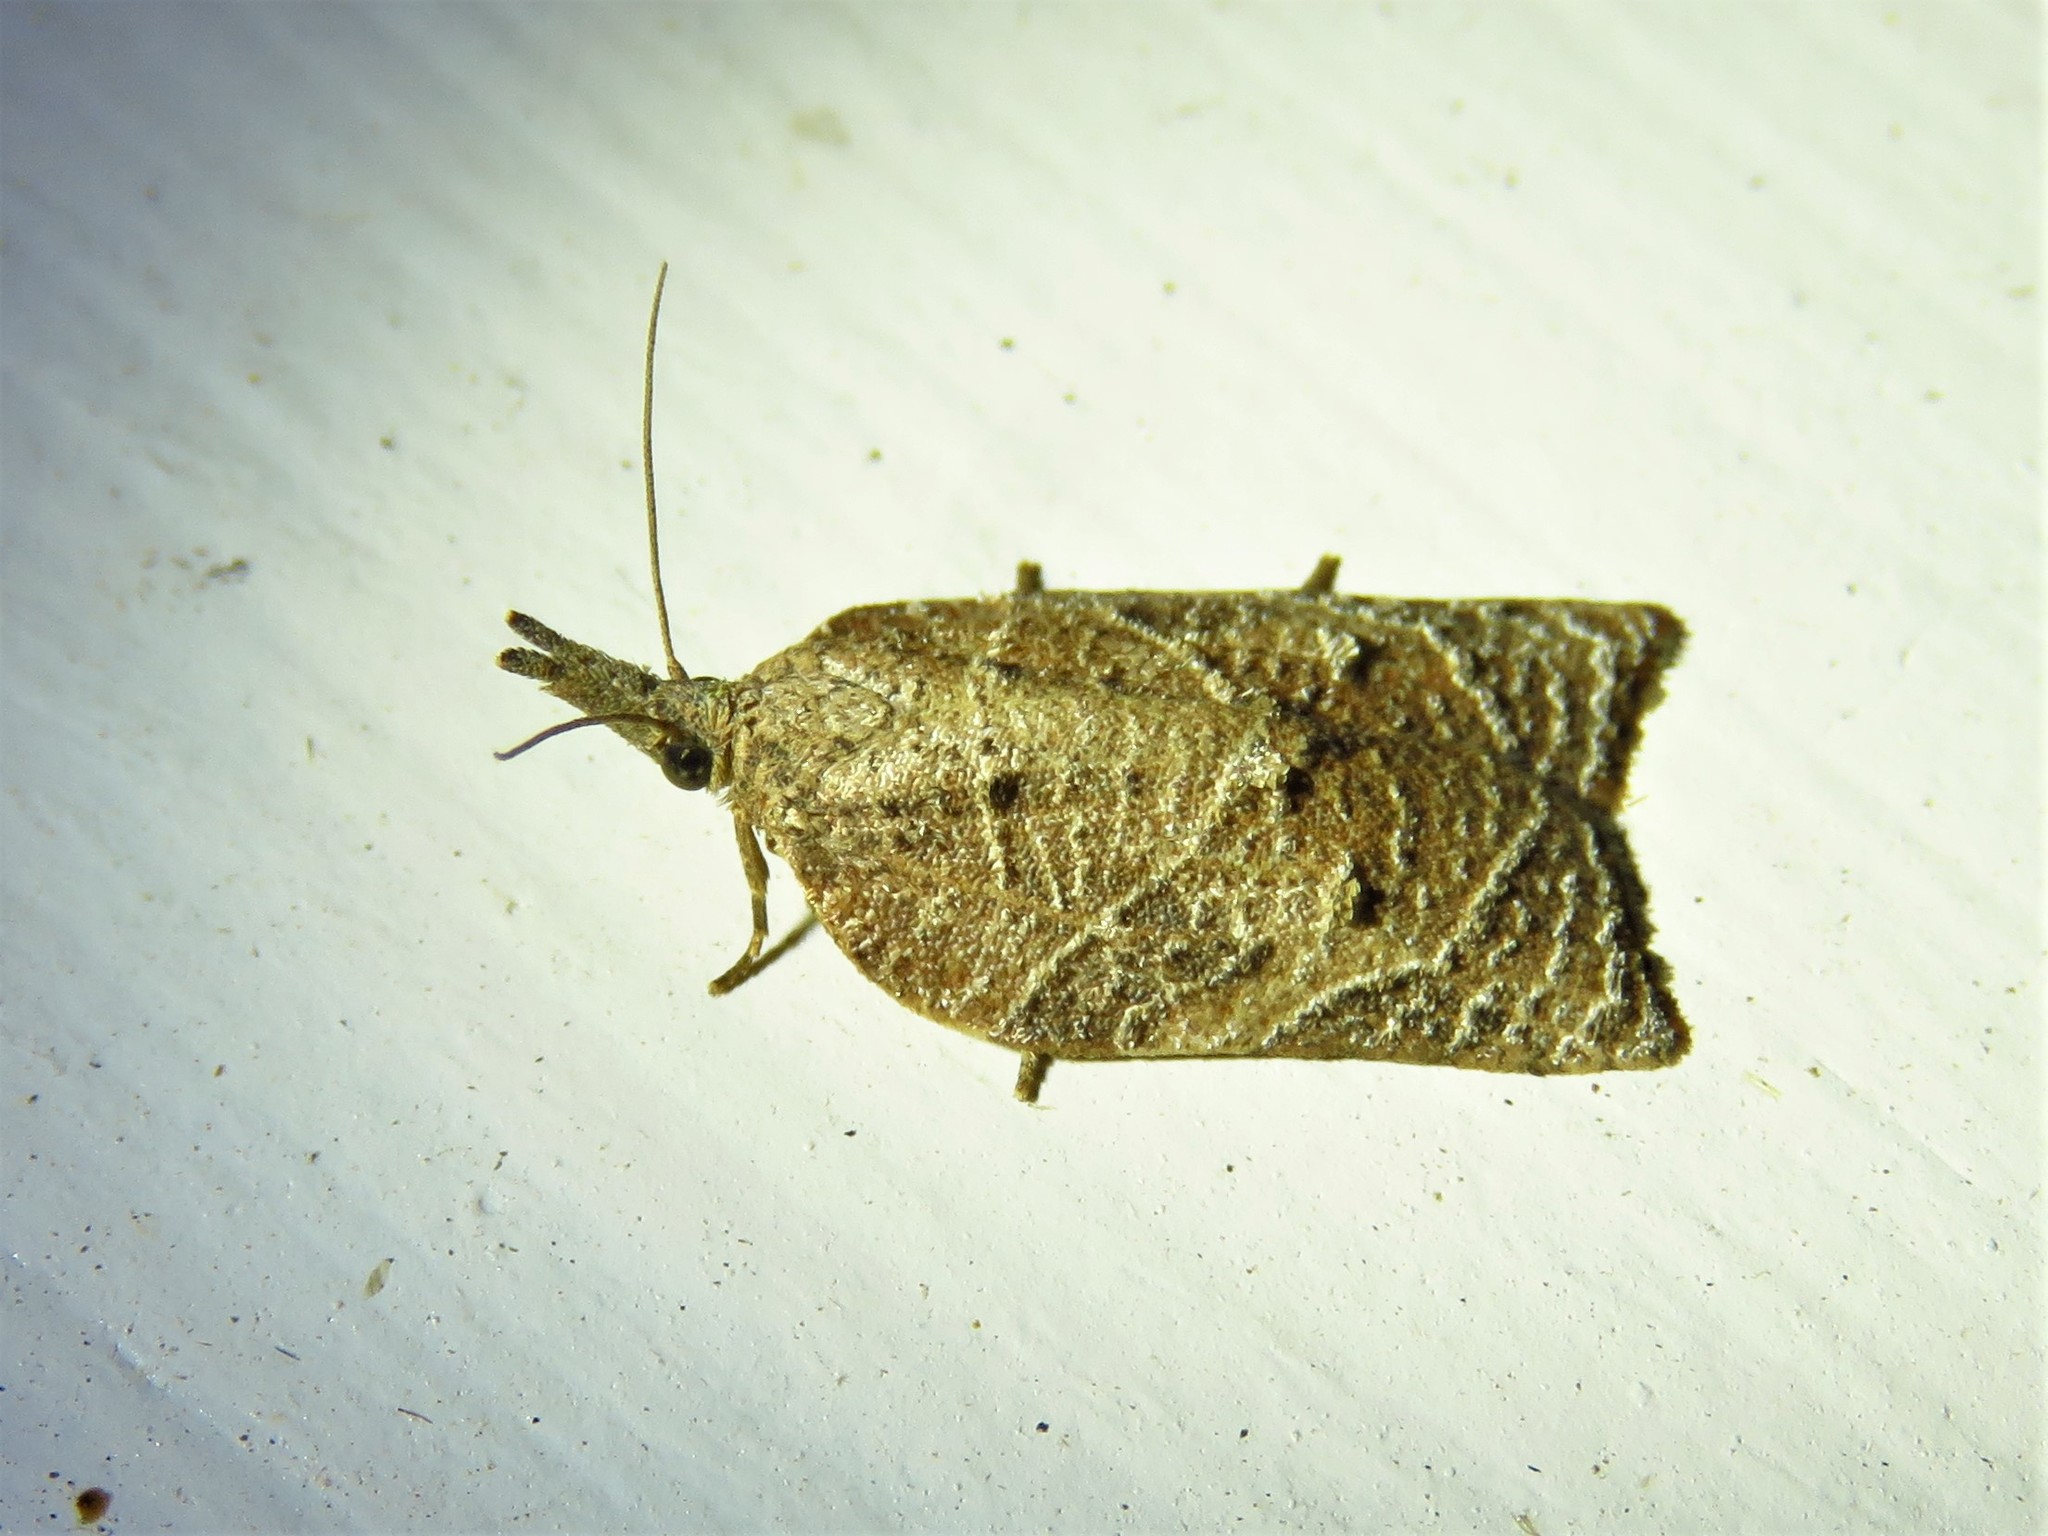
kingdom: Animalia
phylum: Arthropoda
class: Insecta
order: Lepidoptera
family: Tortricidae
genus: Platynota
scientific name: Platynota rostrana
